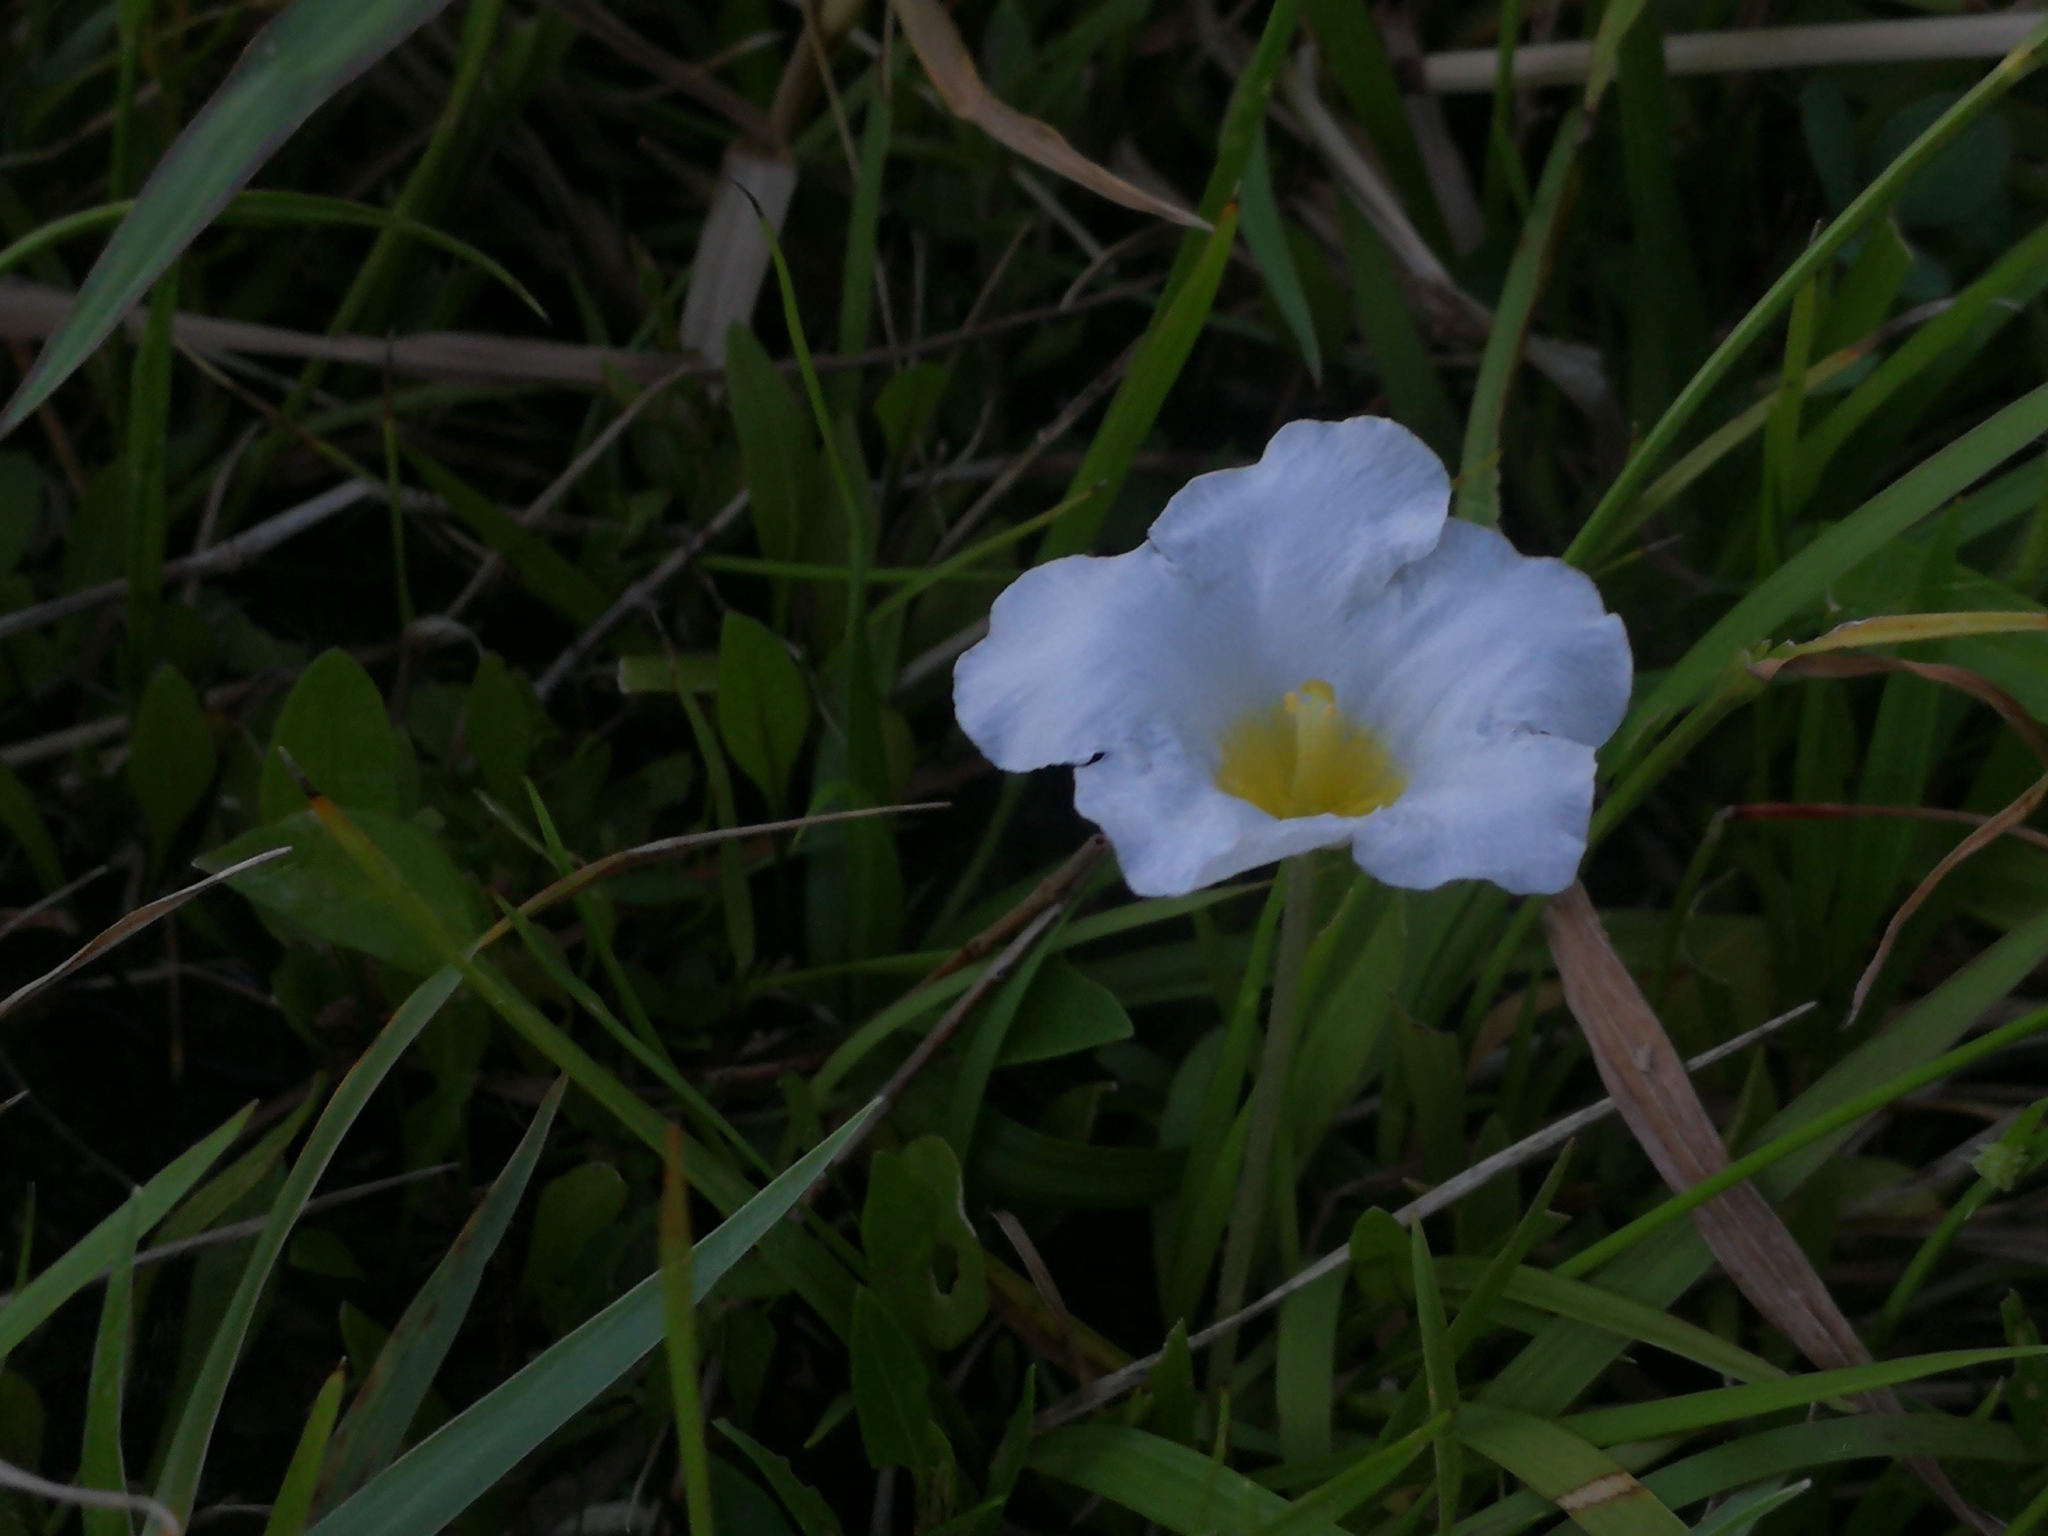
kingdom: Plantae
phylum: Tracheophyta
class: Magnoliopsida
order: Solanales
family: Solanaceae
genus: Nierembergia
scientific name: Nierembergia rivularis
